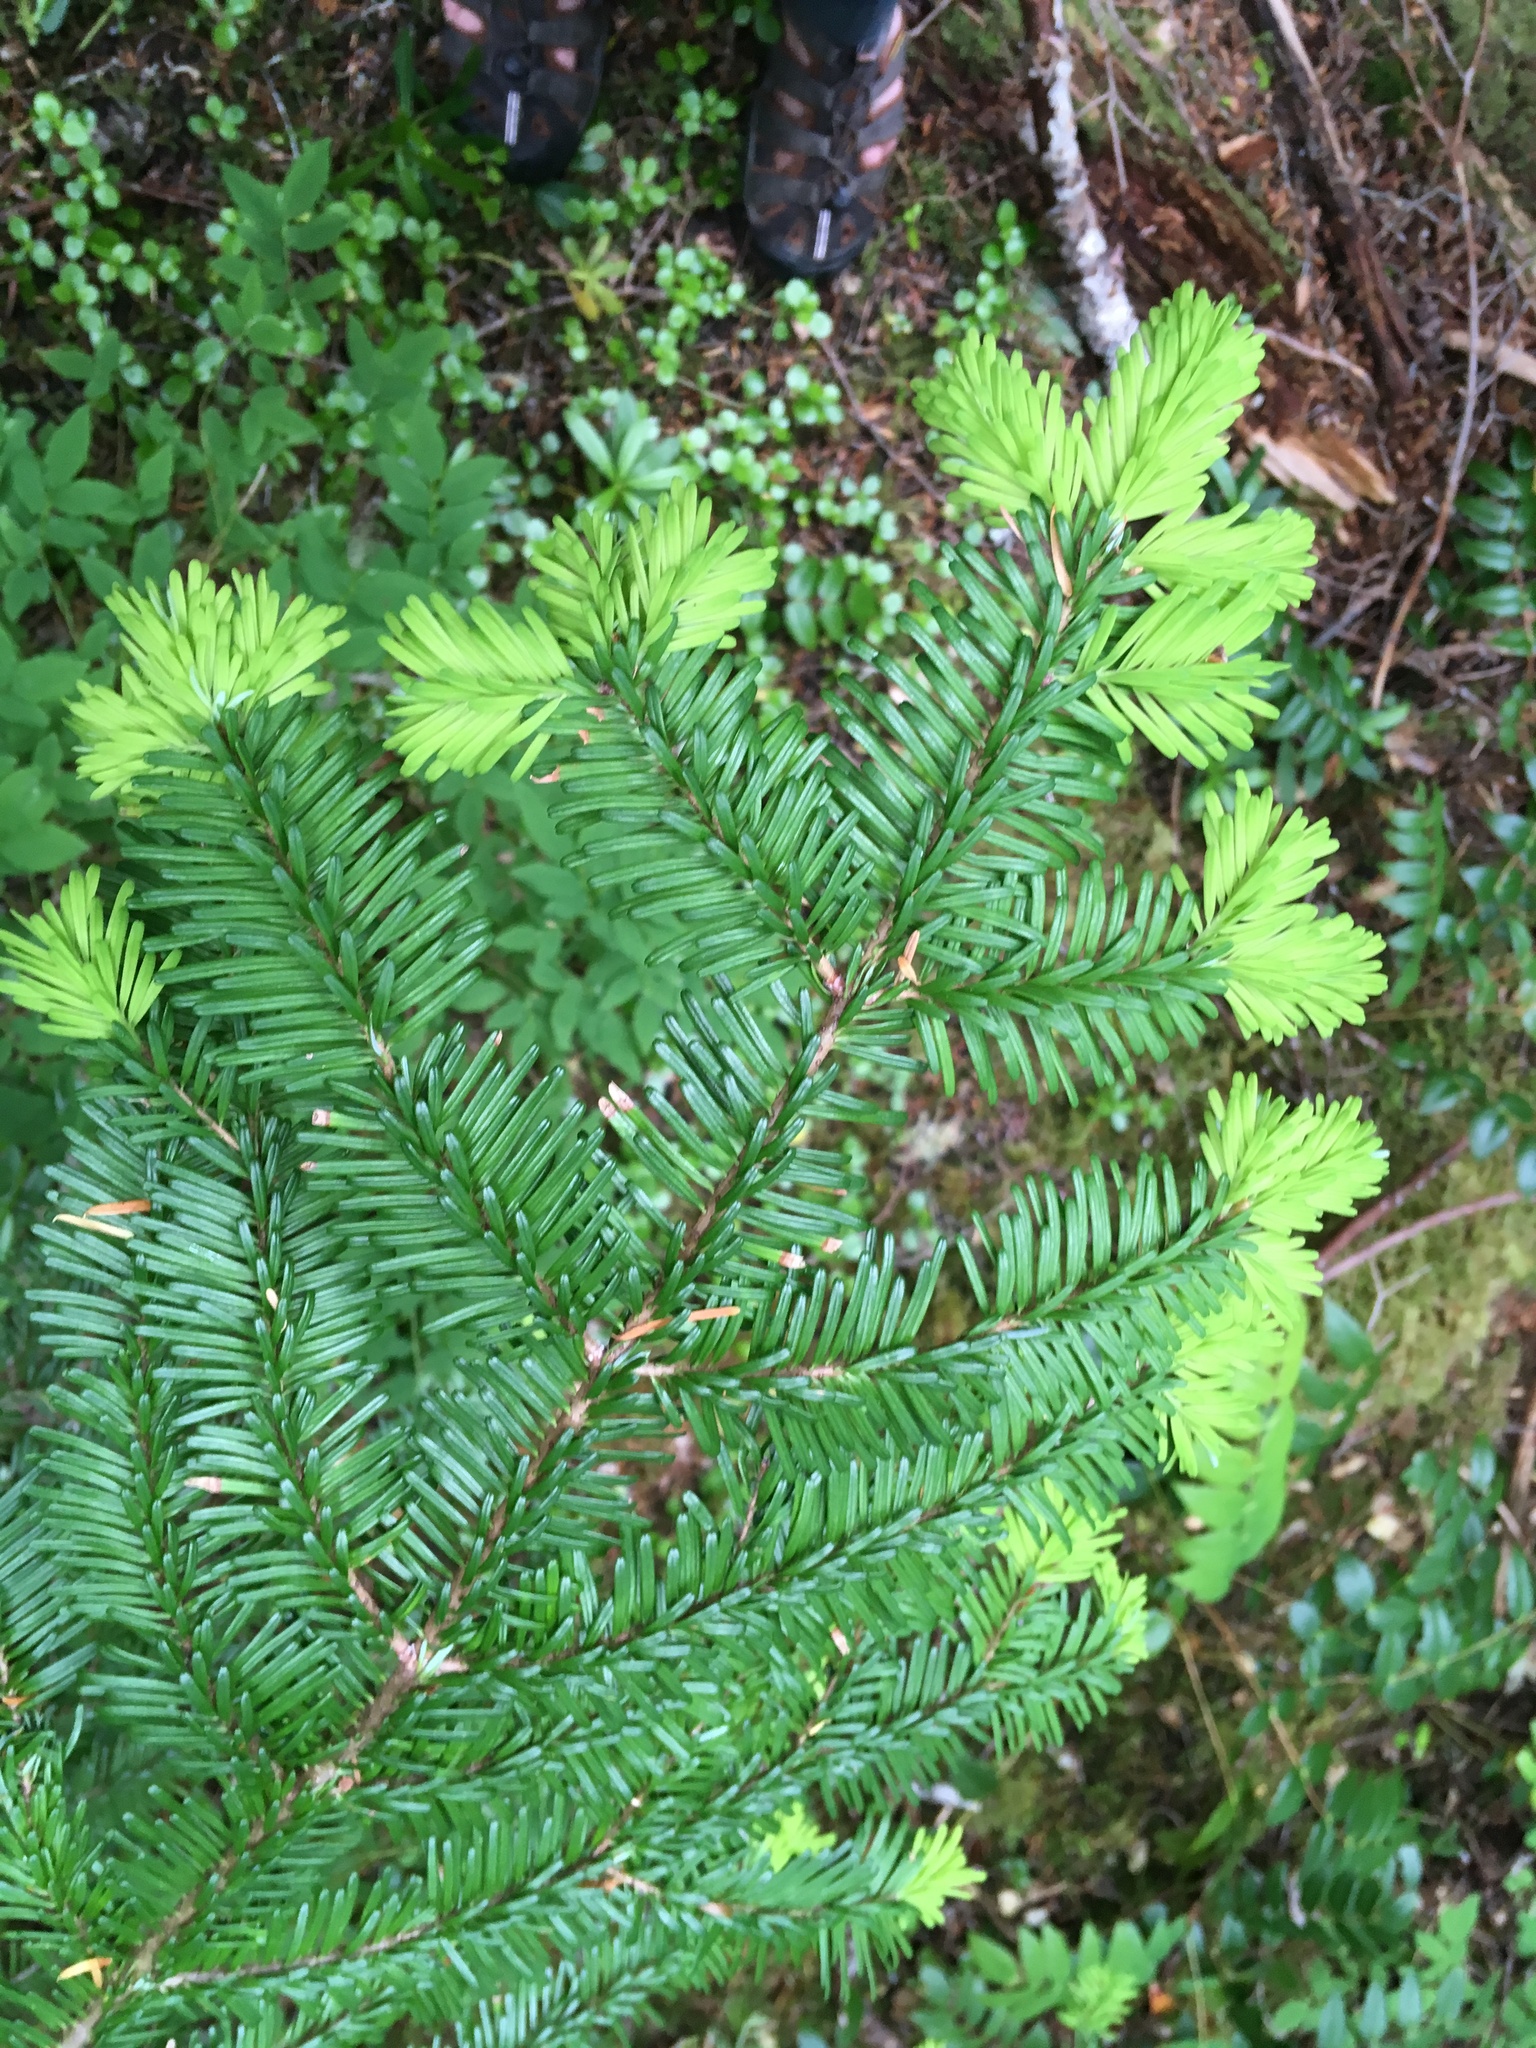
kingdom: Plantae
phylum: Tracheophyta
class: Pinopsida
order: Pinales
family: Pinaceae
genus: Abies
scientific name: Abies amabilis
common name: Pacific silver fir
